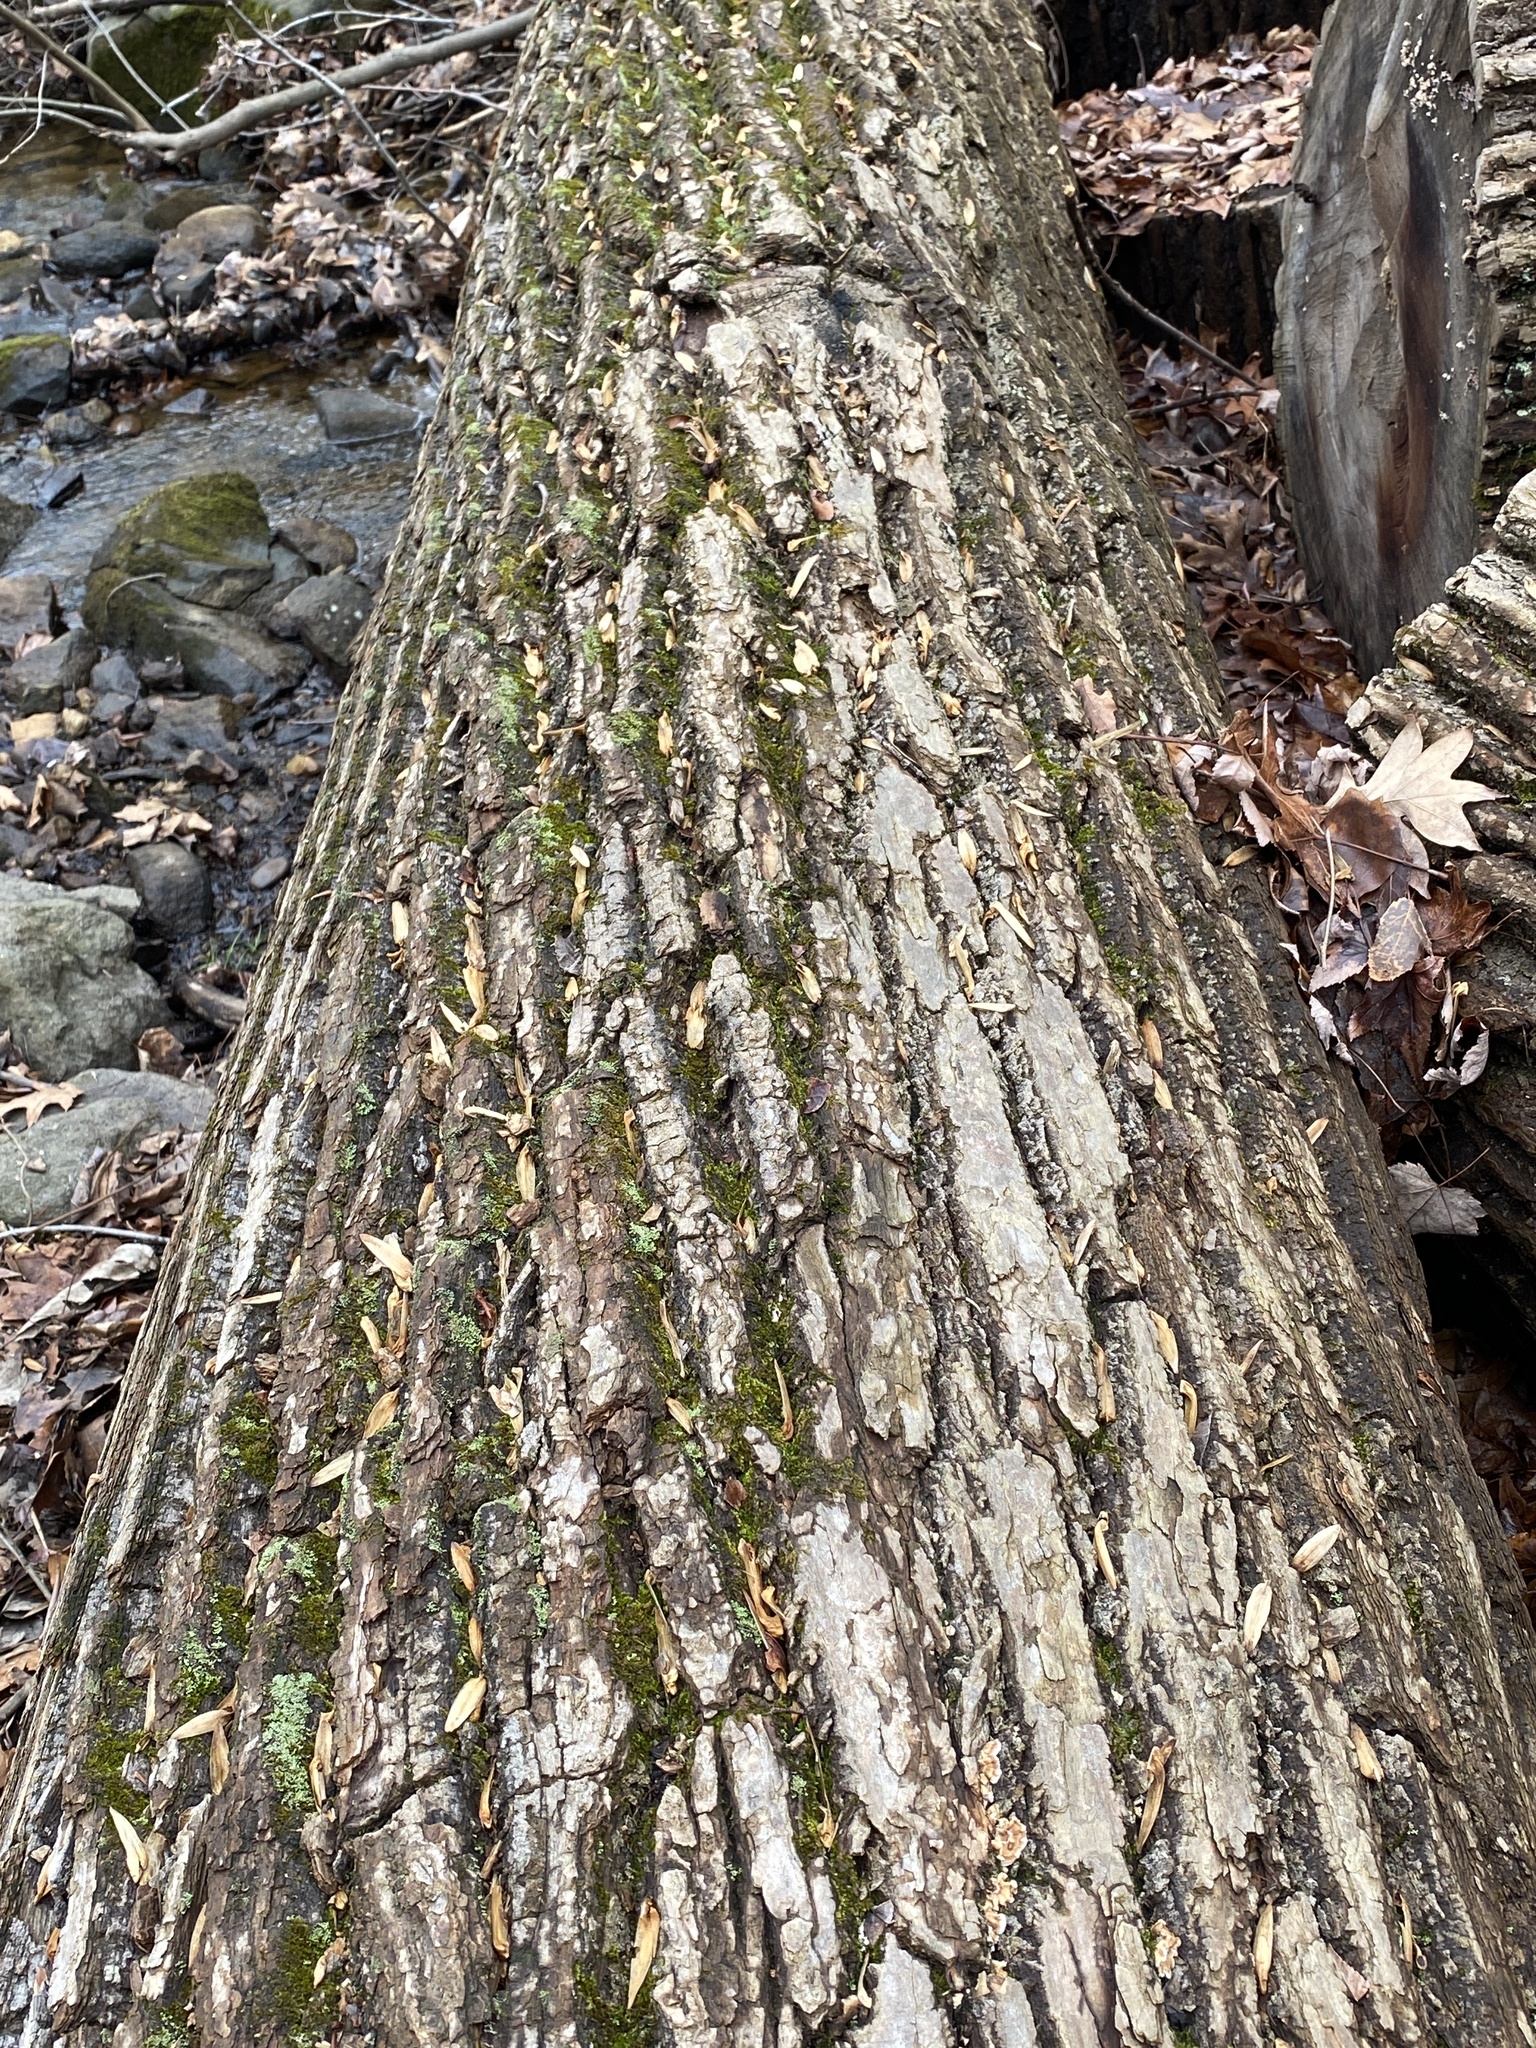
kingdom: Plantae
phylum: Tracheophyta
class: Magnoliopsida
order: Magnoliales
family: Magnoliaceae
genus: Liriodendron
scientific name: Liriodendron tulipifera
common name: Tulip tree
